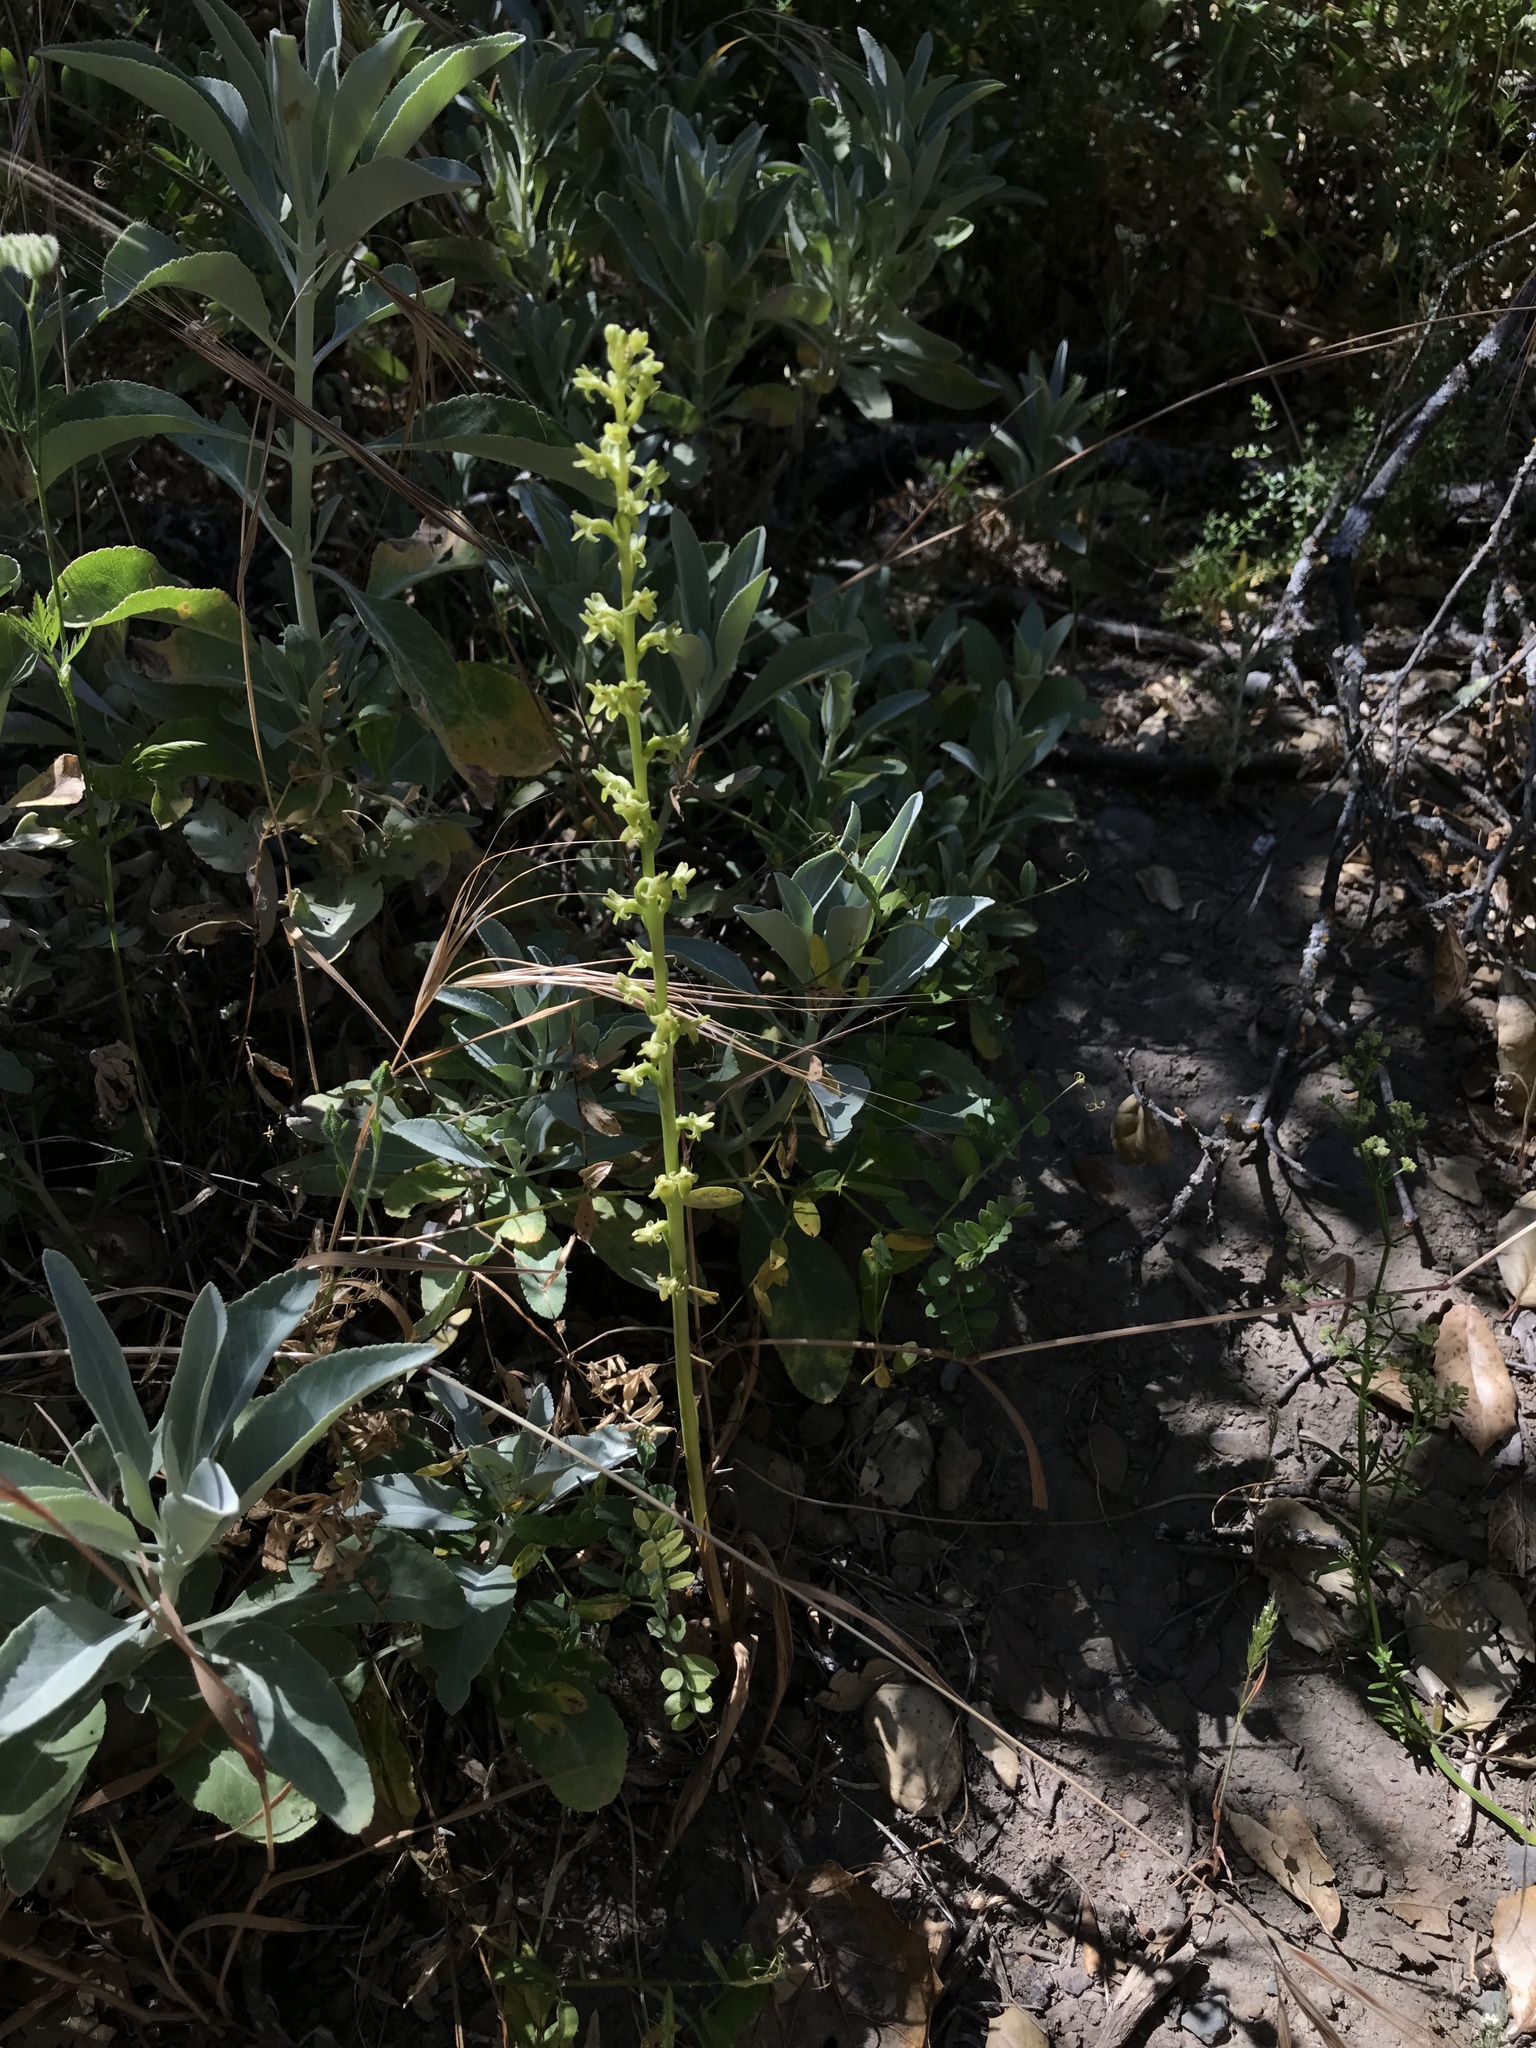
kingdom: Plantae
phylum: Tracheophyta
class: Liliopsida
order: Asparagales
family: Orchidaceae
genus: Platanthera
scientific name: Platanthera cooperi
